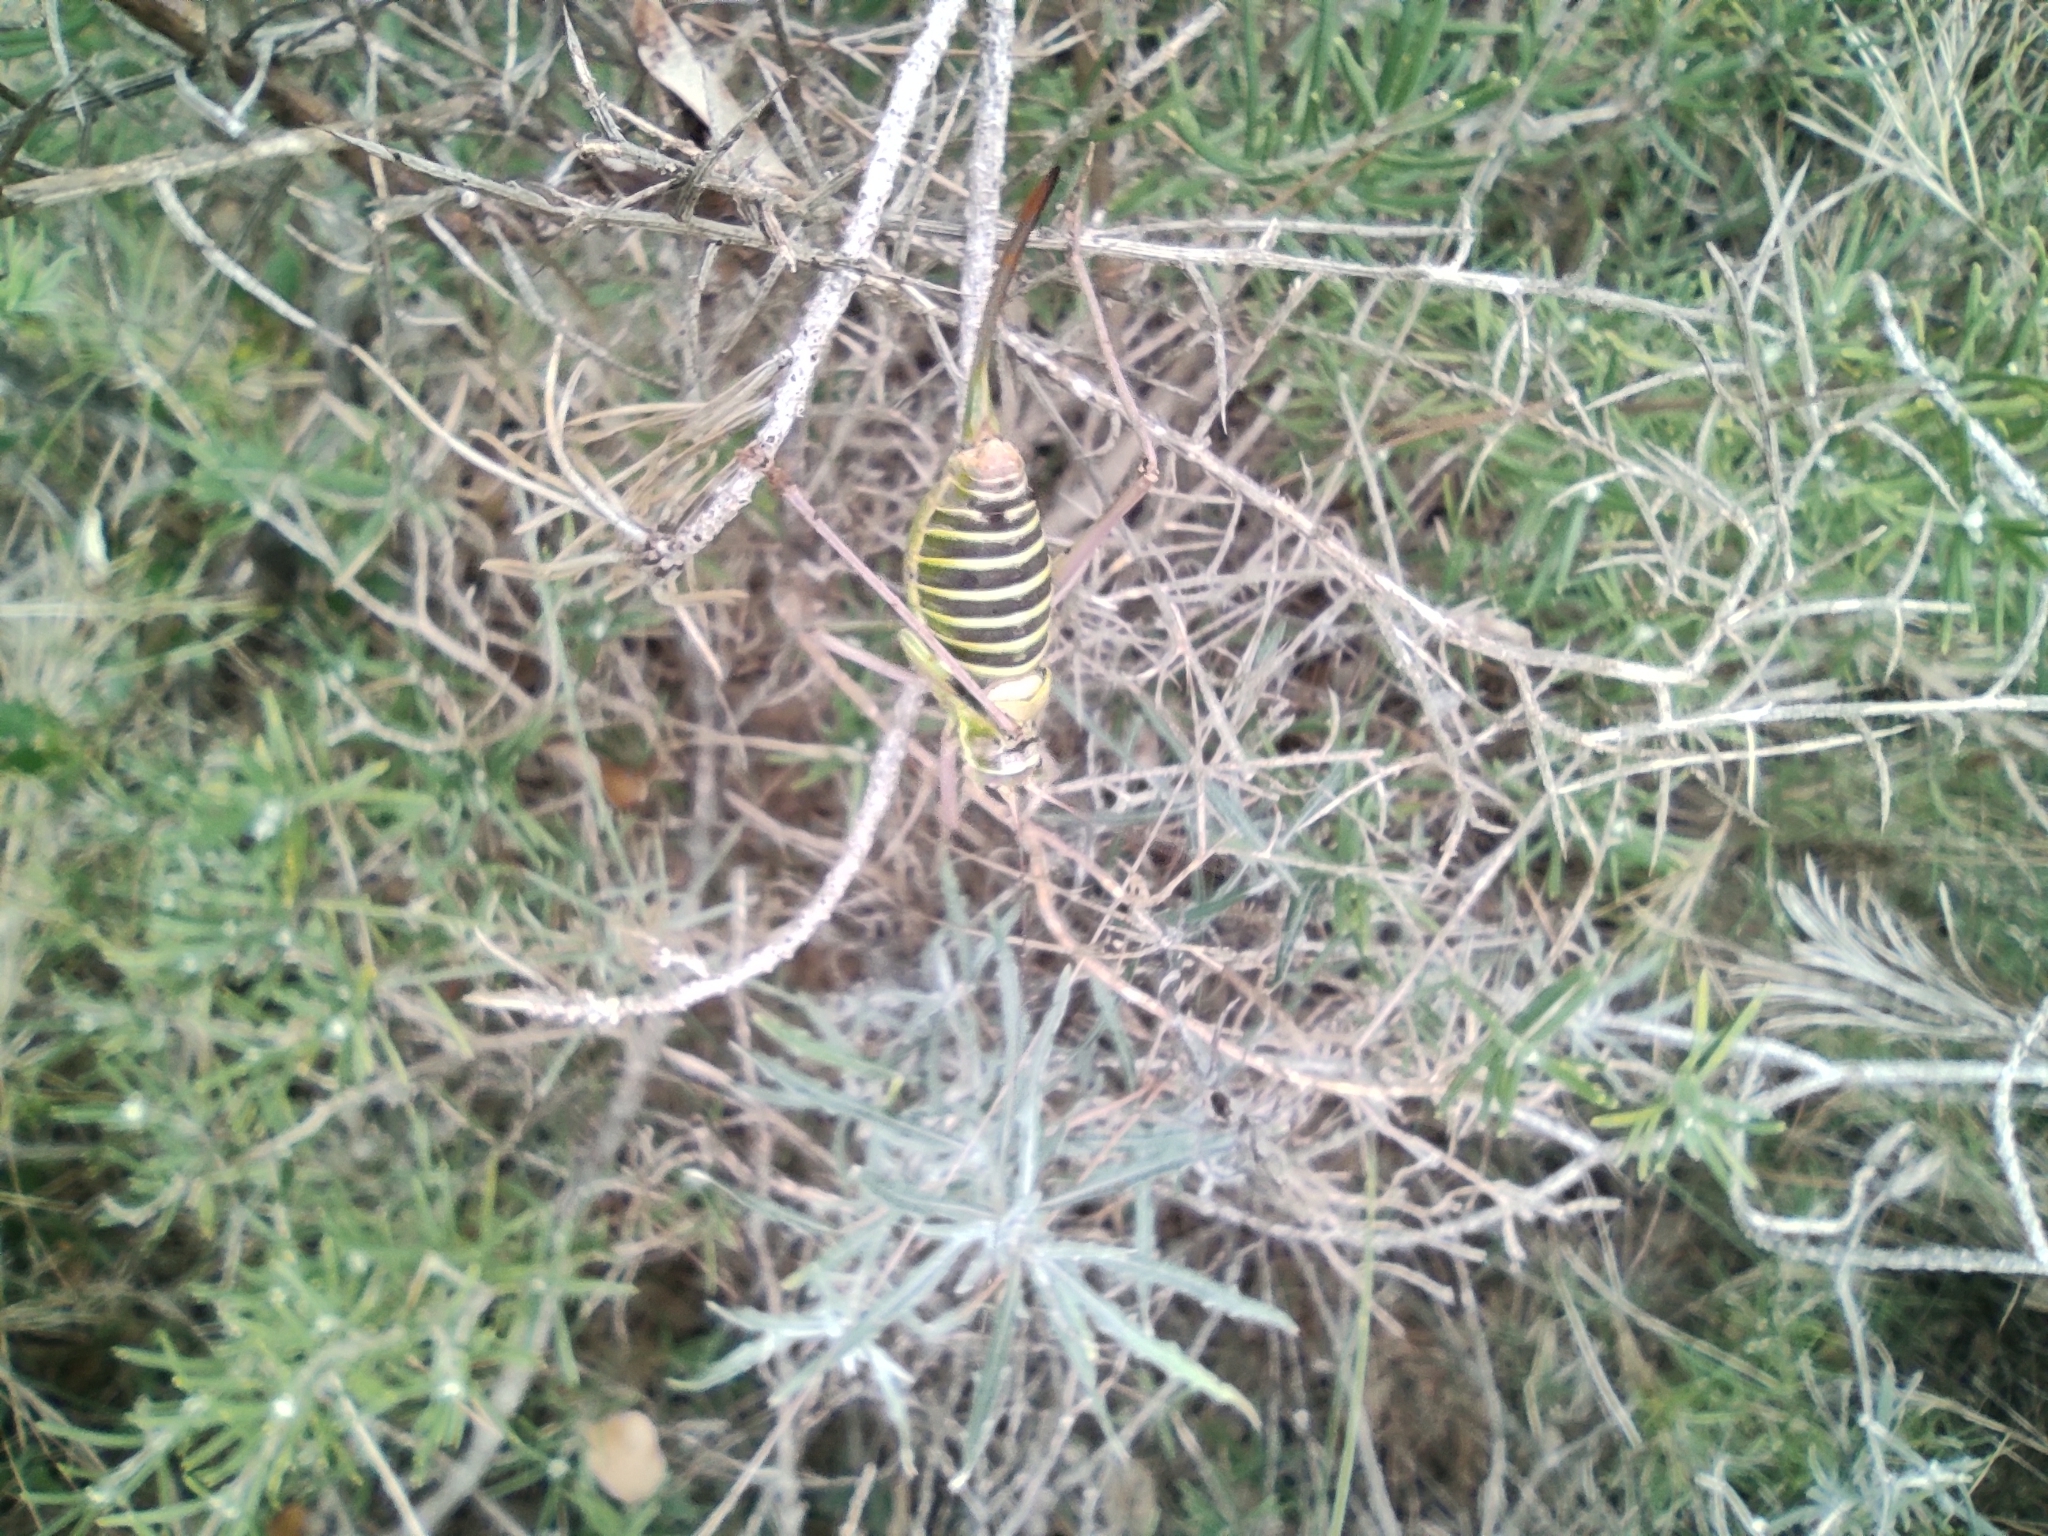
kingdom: Animalia
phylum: Arthropoda
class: Insecta
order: Orthoptera
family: Tettigoniidae
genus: Ephippiger
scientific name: Ephippiger diurnus
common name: Western saddle bush-cricket
